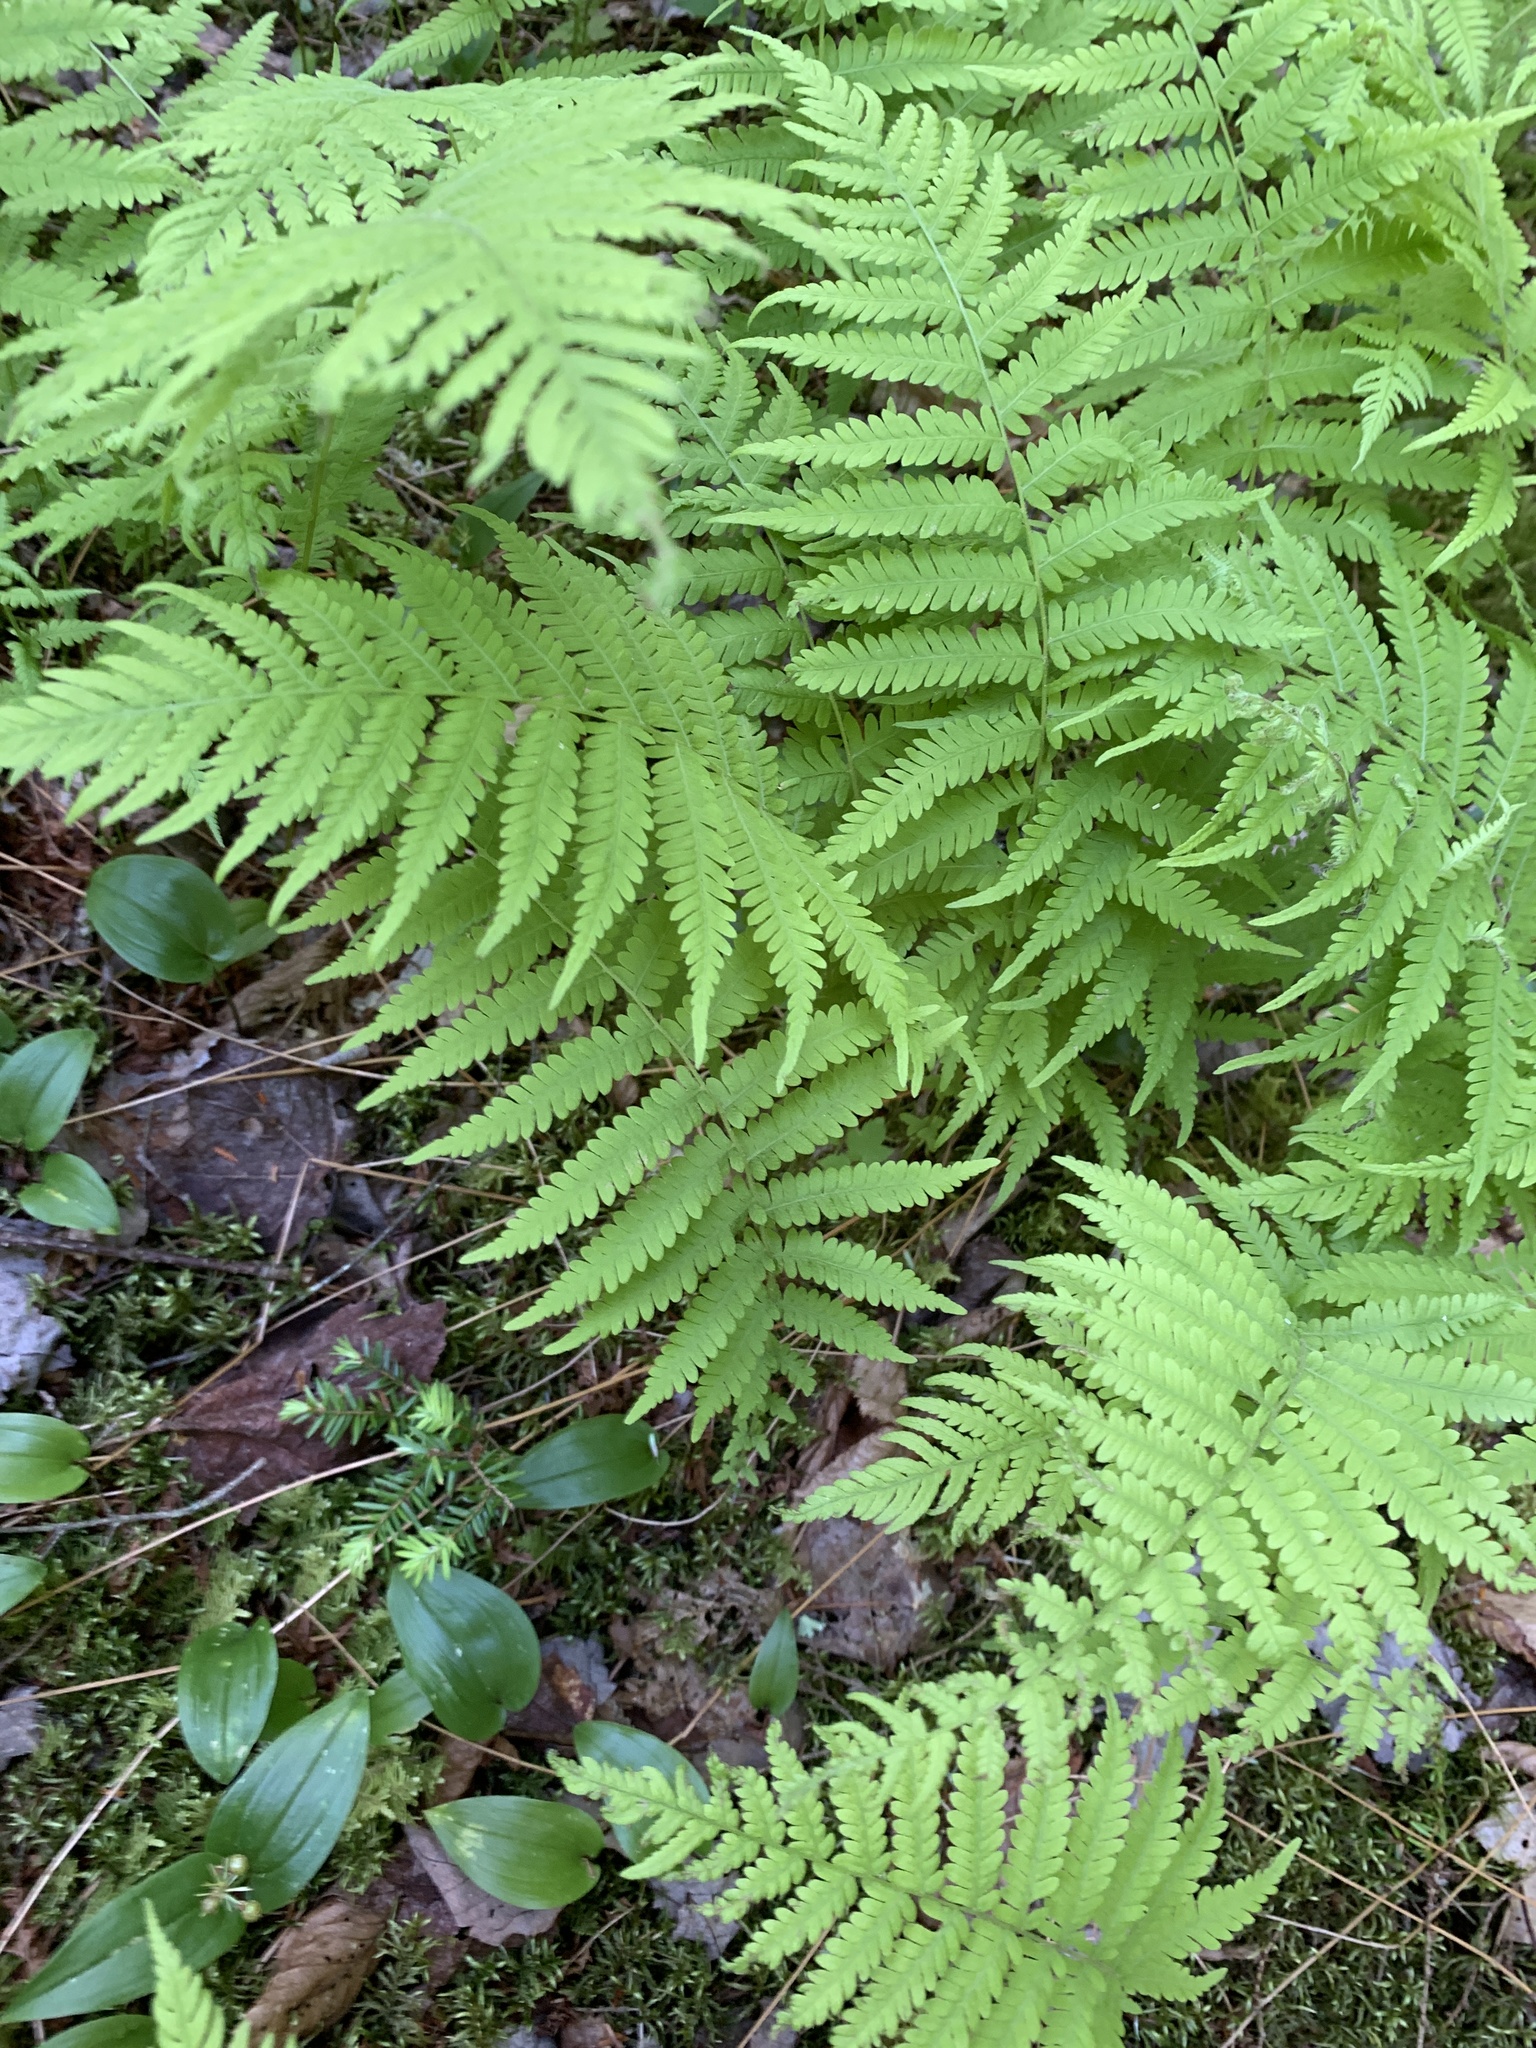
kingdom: Plantae
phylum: Tracheophyta
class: Polypodiopsida
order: Polypodiales
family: Thelypteridaceae
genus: Amauropelta
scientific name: Amauropelta noveboracensis
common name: New york fern
